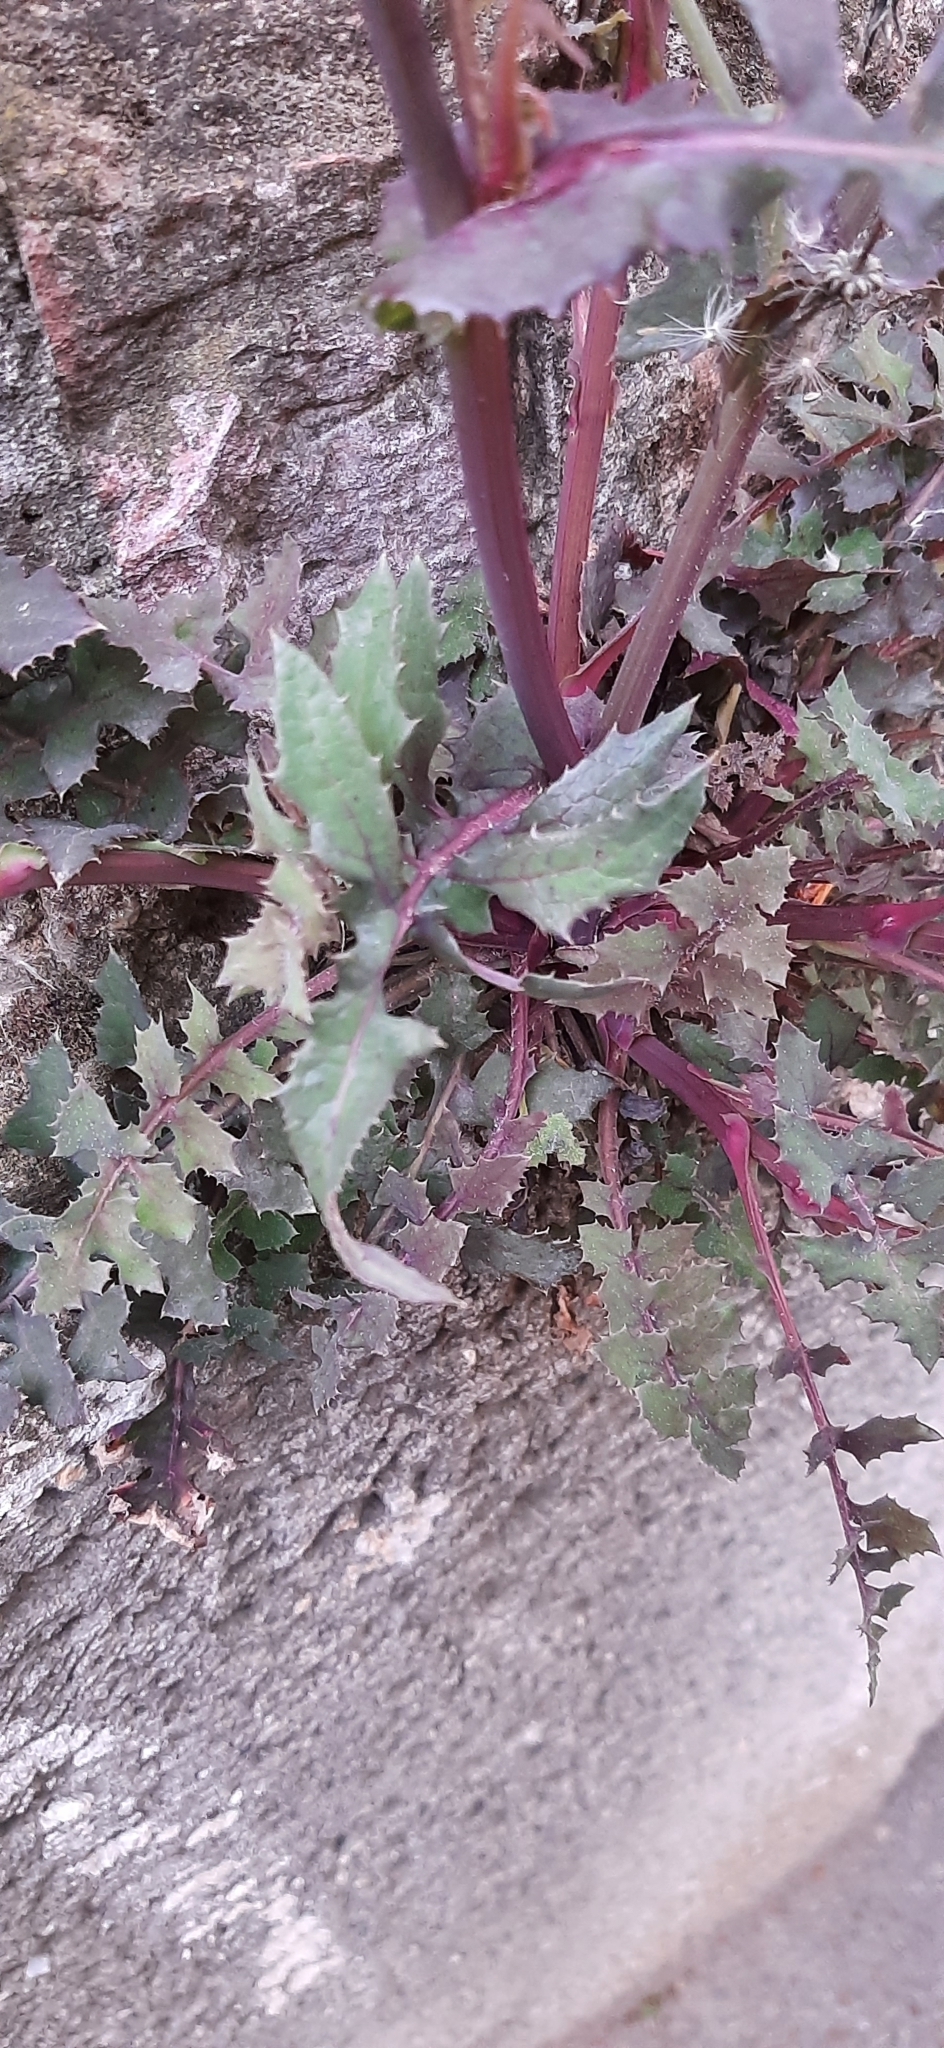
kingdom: Plantae
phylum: Tracheophyta
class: Magnoliopsida
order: Asterales
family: Asteraceae
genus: Sonchus
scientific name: Sonchus oleraceus
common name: Common sowthistle
